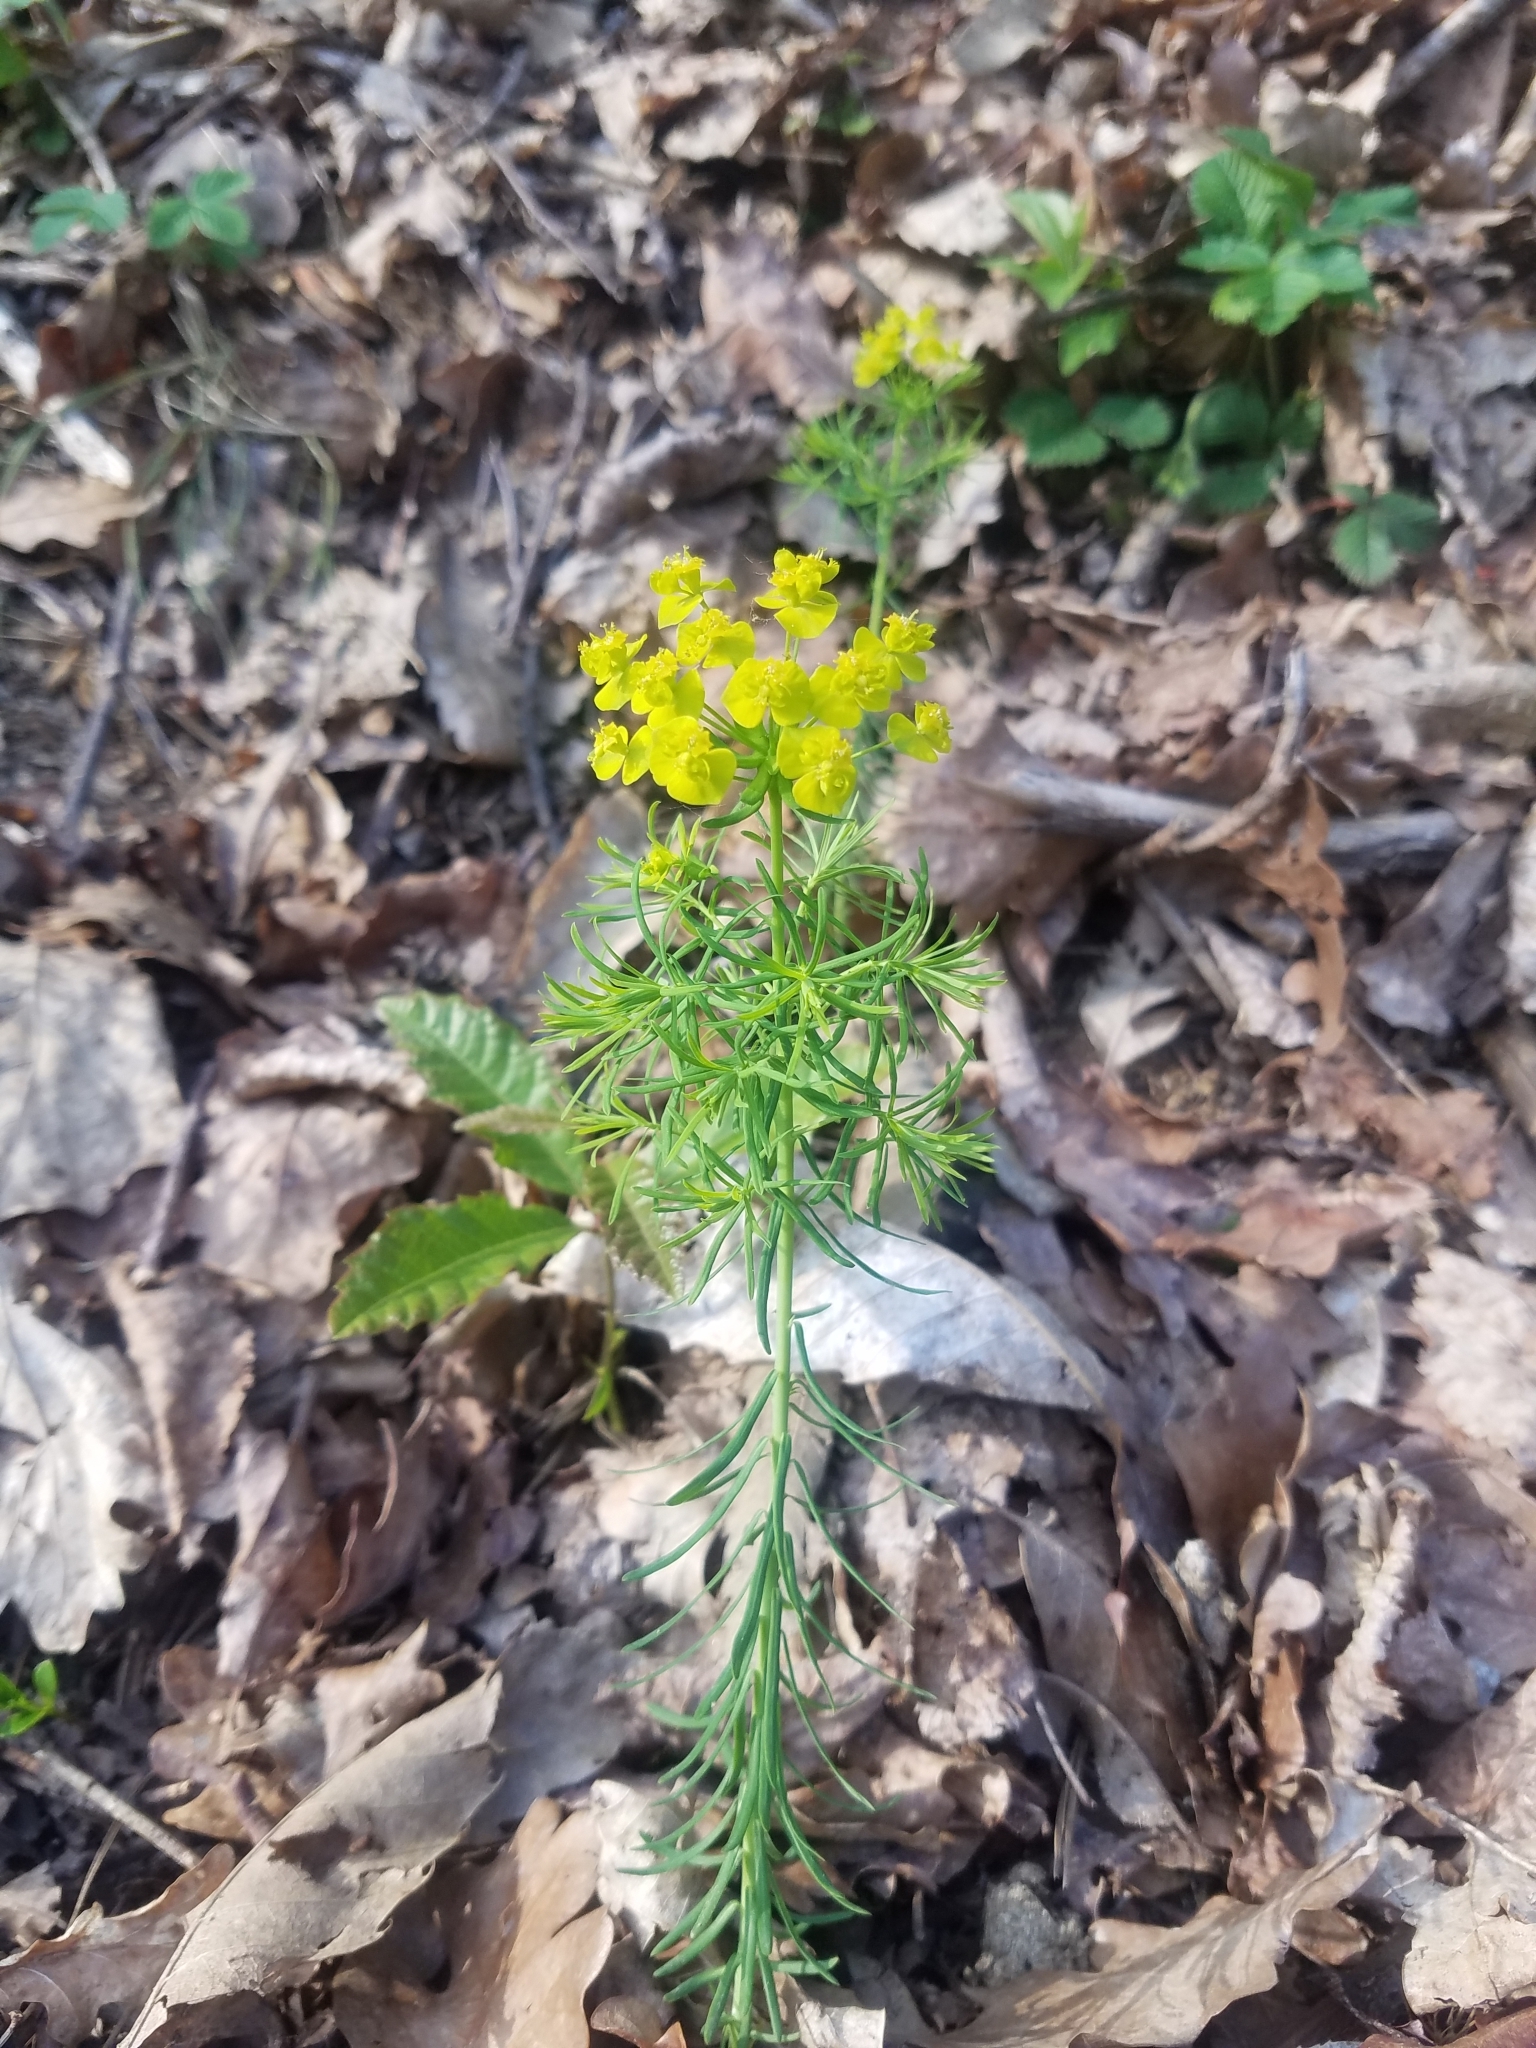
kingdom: Plantae
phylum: Tracheophyta
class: Magnoliopsida
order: Malpighiales
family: Euphorbiaceae
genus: Euphorbia
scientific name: Euphorbia cyparissias
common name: Cypress spurge
